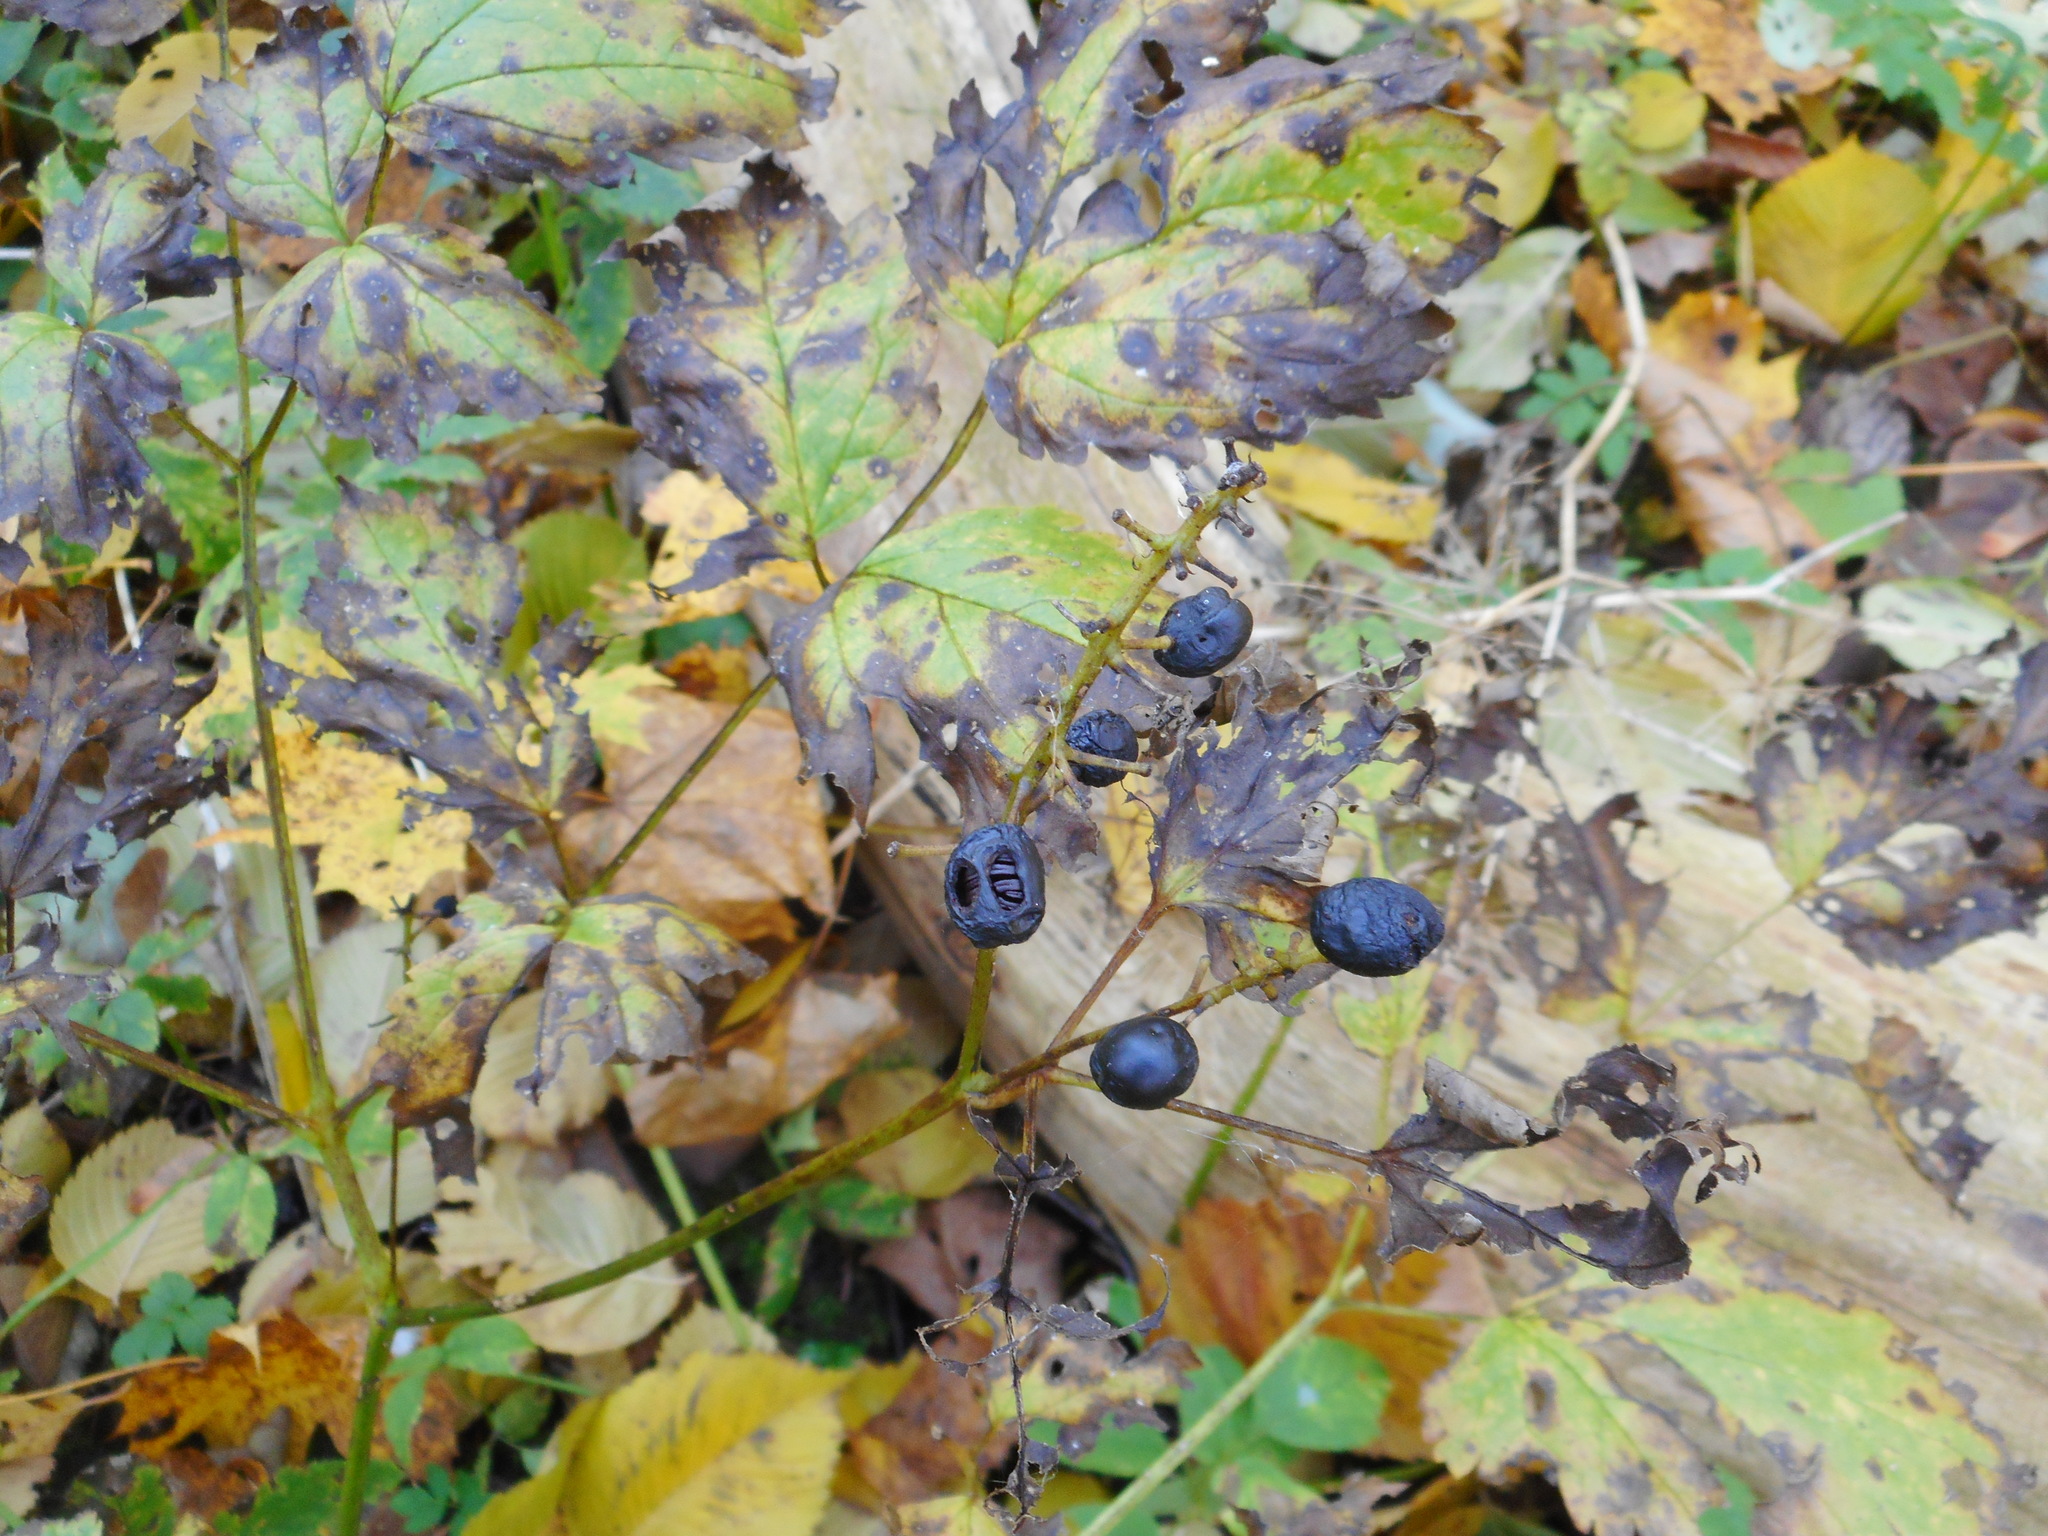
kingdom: Plantae
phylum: Tracheophyta
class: Magnoliopsida
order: Ranunculales
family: Ranunculaceae
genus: Actaea
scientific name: Actaea spicata
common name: Baneberry
